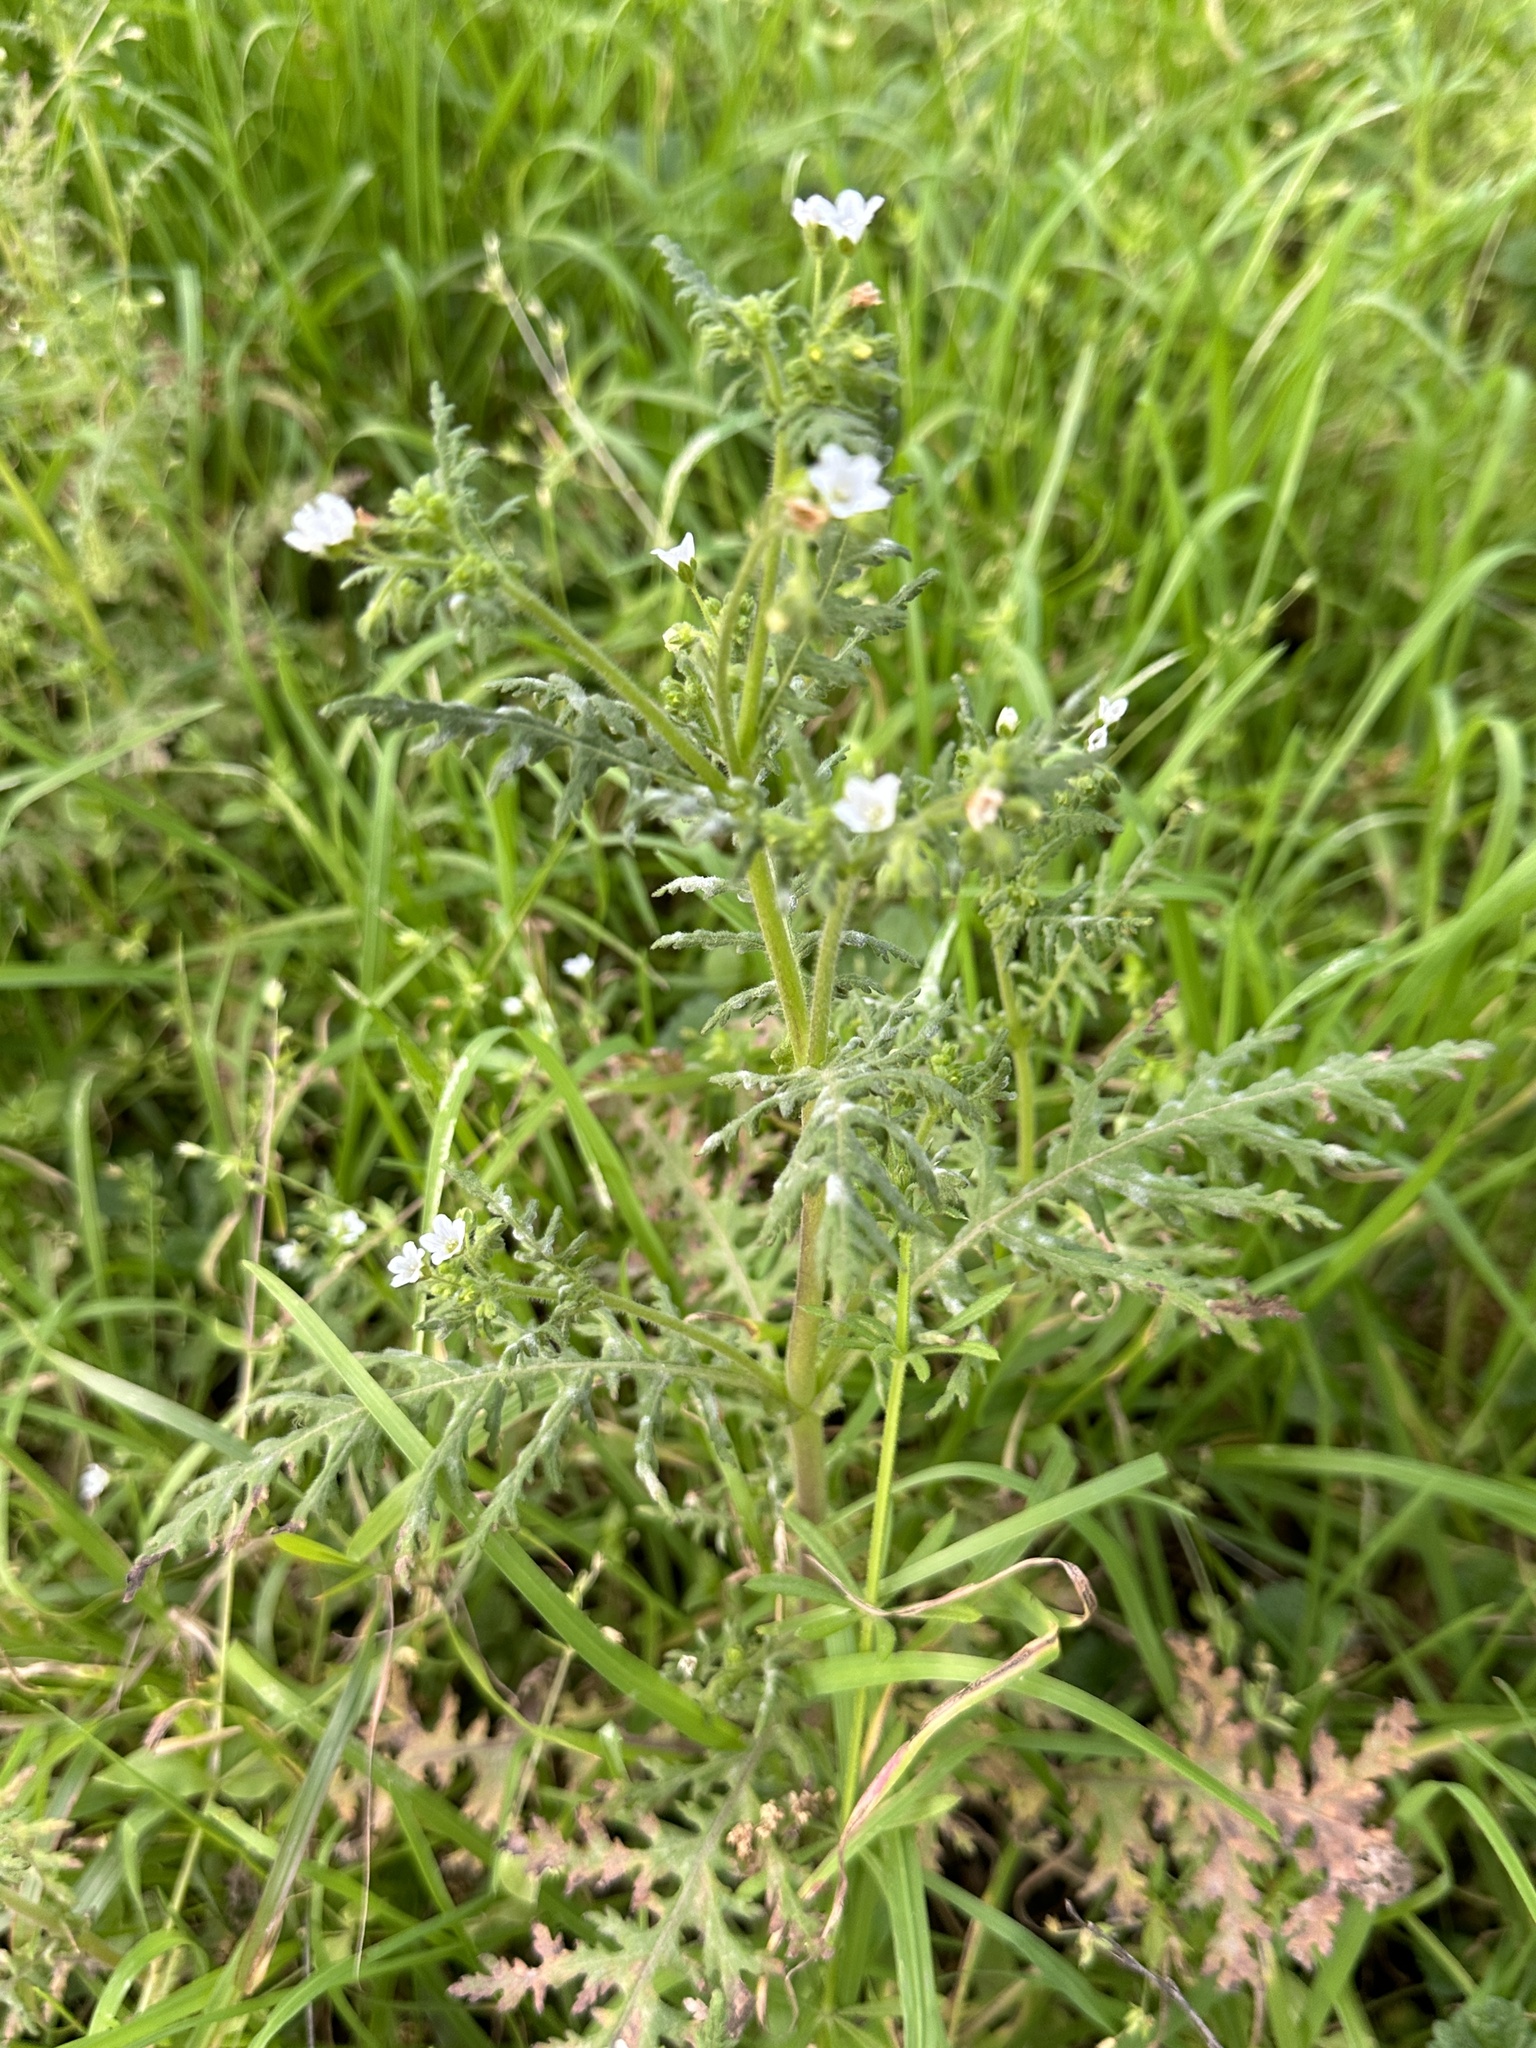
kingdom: Plantae
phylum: Tracheophyta
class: Magnoliopsida
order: Boraginales
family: Hydrophyllaceae
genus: Eucrypta
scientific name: Eucrypta chrysanthemifolia
